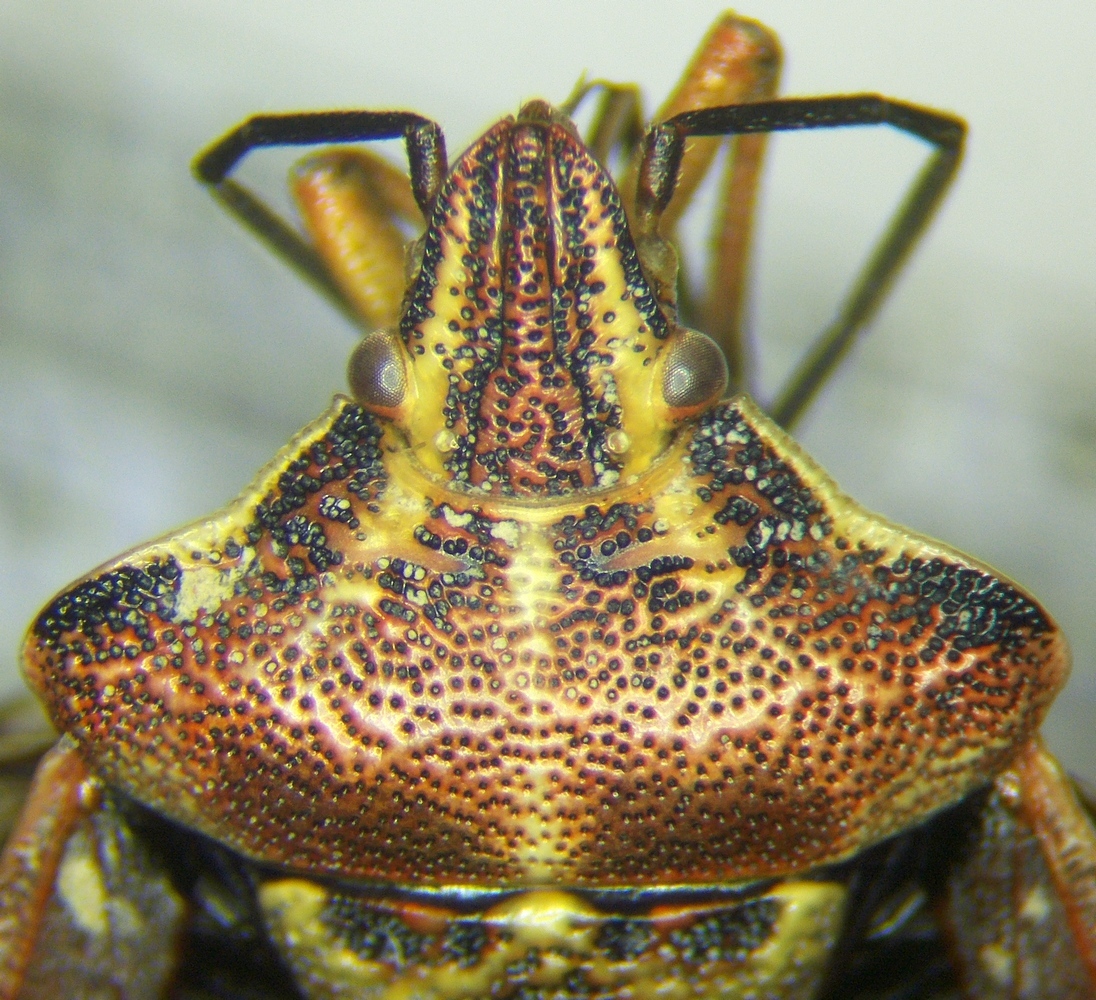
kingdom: Animalia
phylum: Arthropoda
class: Insecta
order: Hemiptera
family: Miridae
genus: Orthops
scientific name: Orthops kalmii
